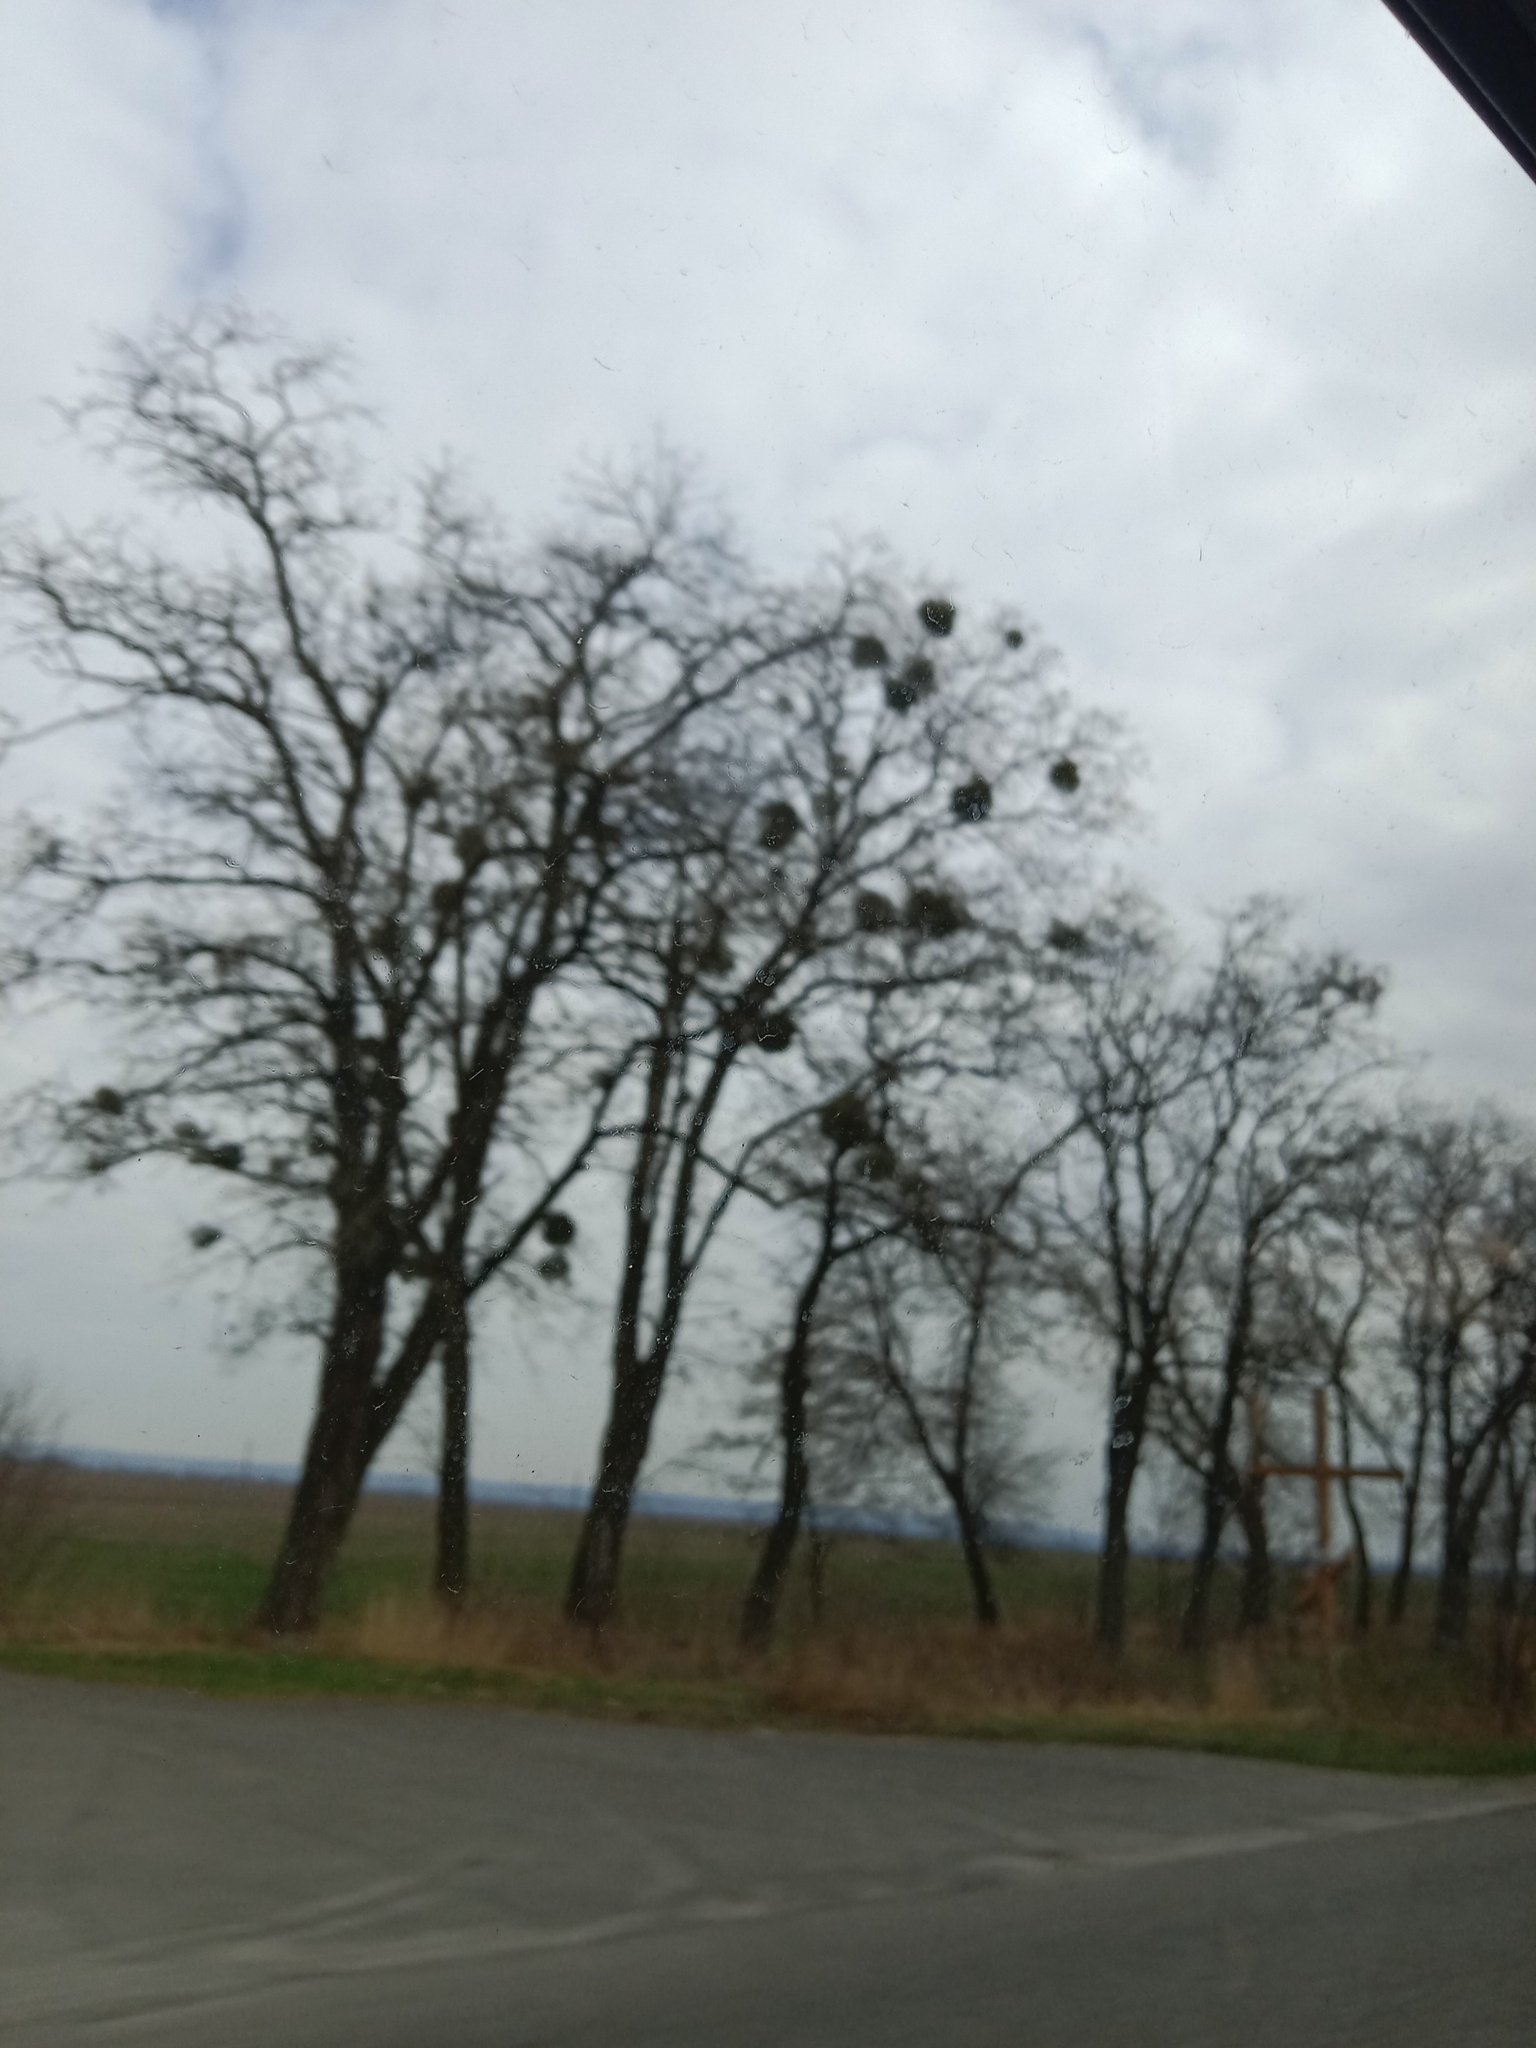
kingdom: Plantae
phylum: Tracheophyta
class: Magnoliopsida
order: Santalales
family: Viscaceae
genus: Viscum
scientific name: Viscum album
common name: Mistletoe
